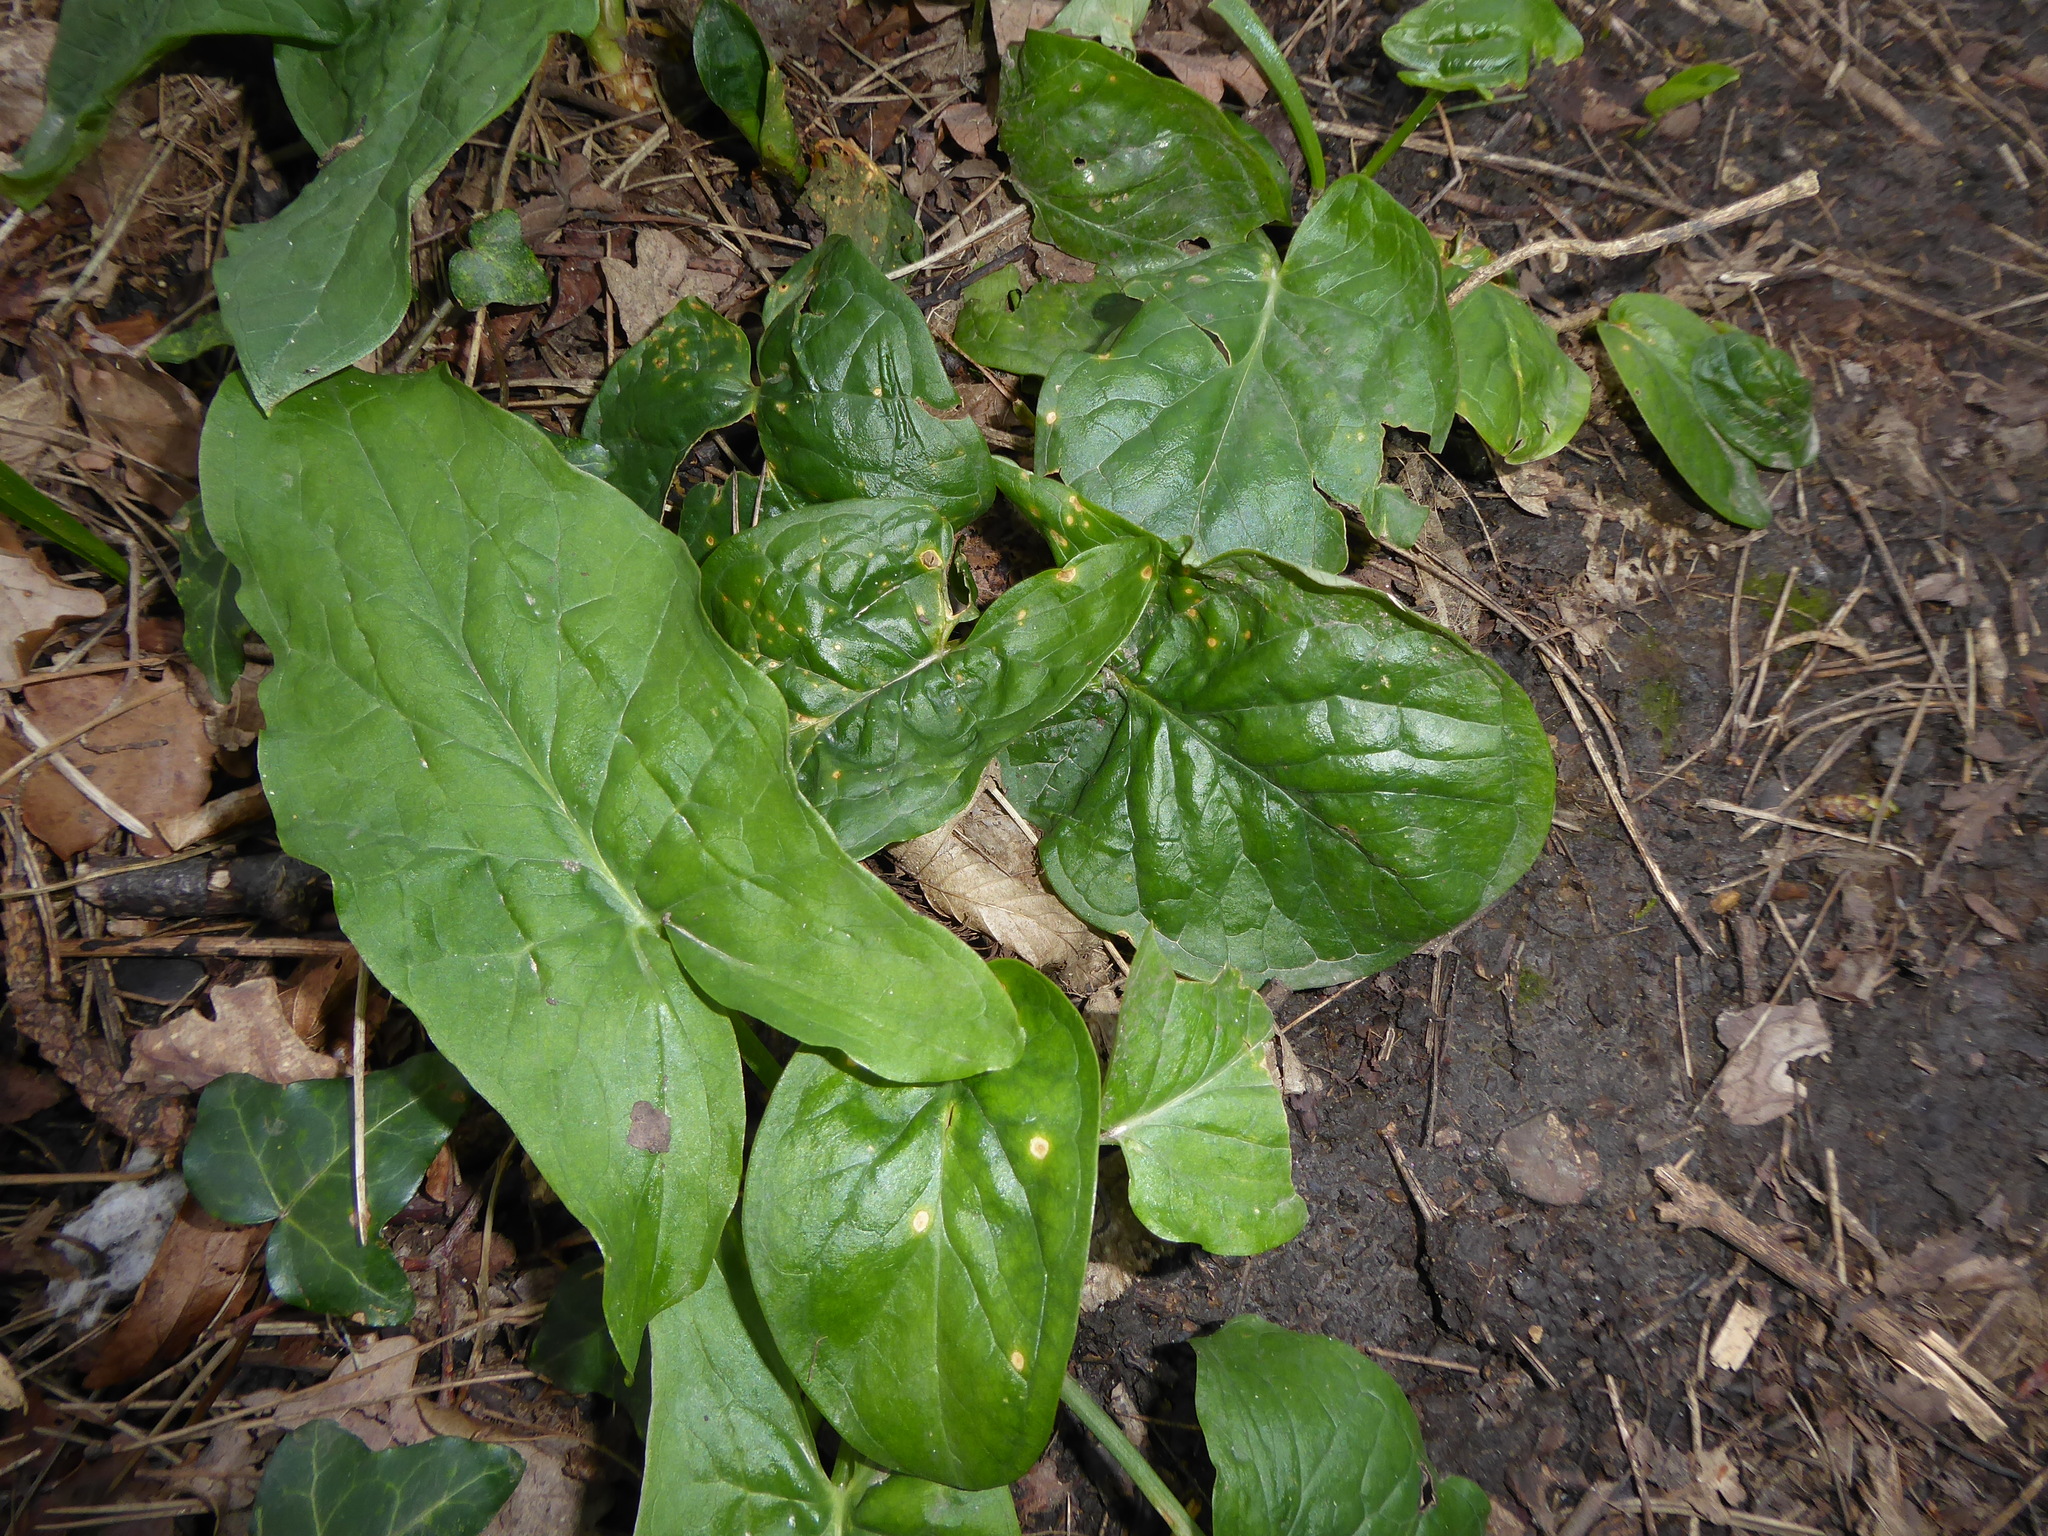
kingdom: Plantae
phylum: Tracheophyta
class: Liliopsida
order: Alismatales
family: Araceae
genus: Arum
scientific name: Arum maculatum
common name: Lords-and-ladies
